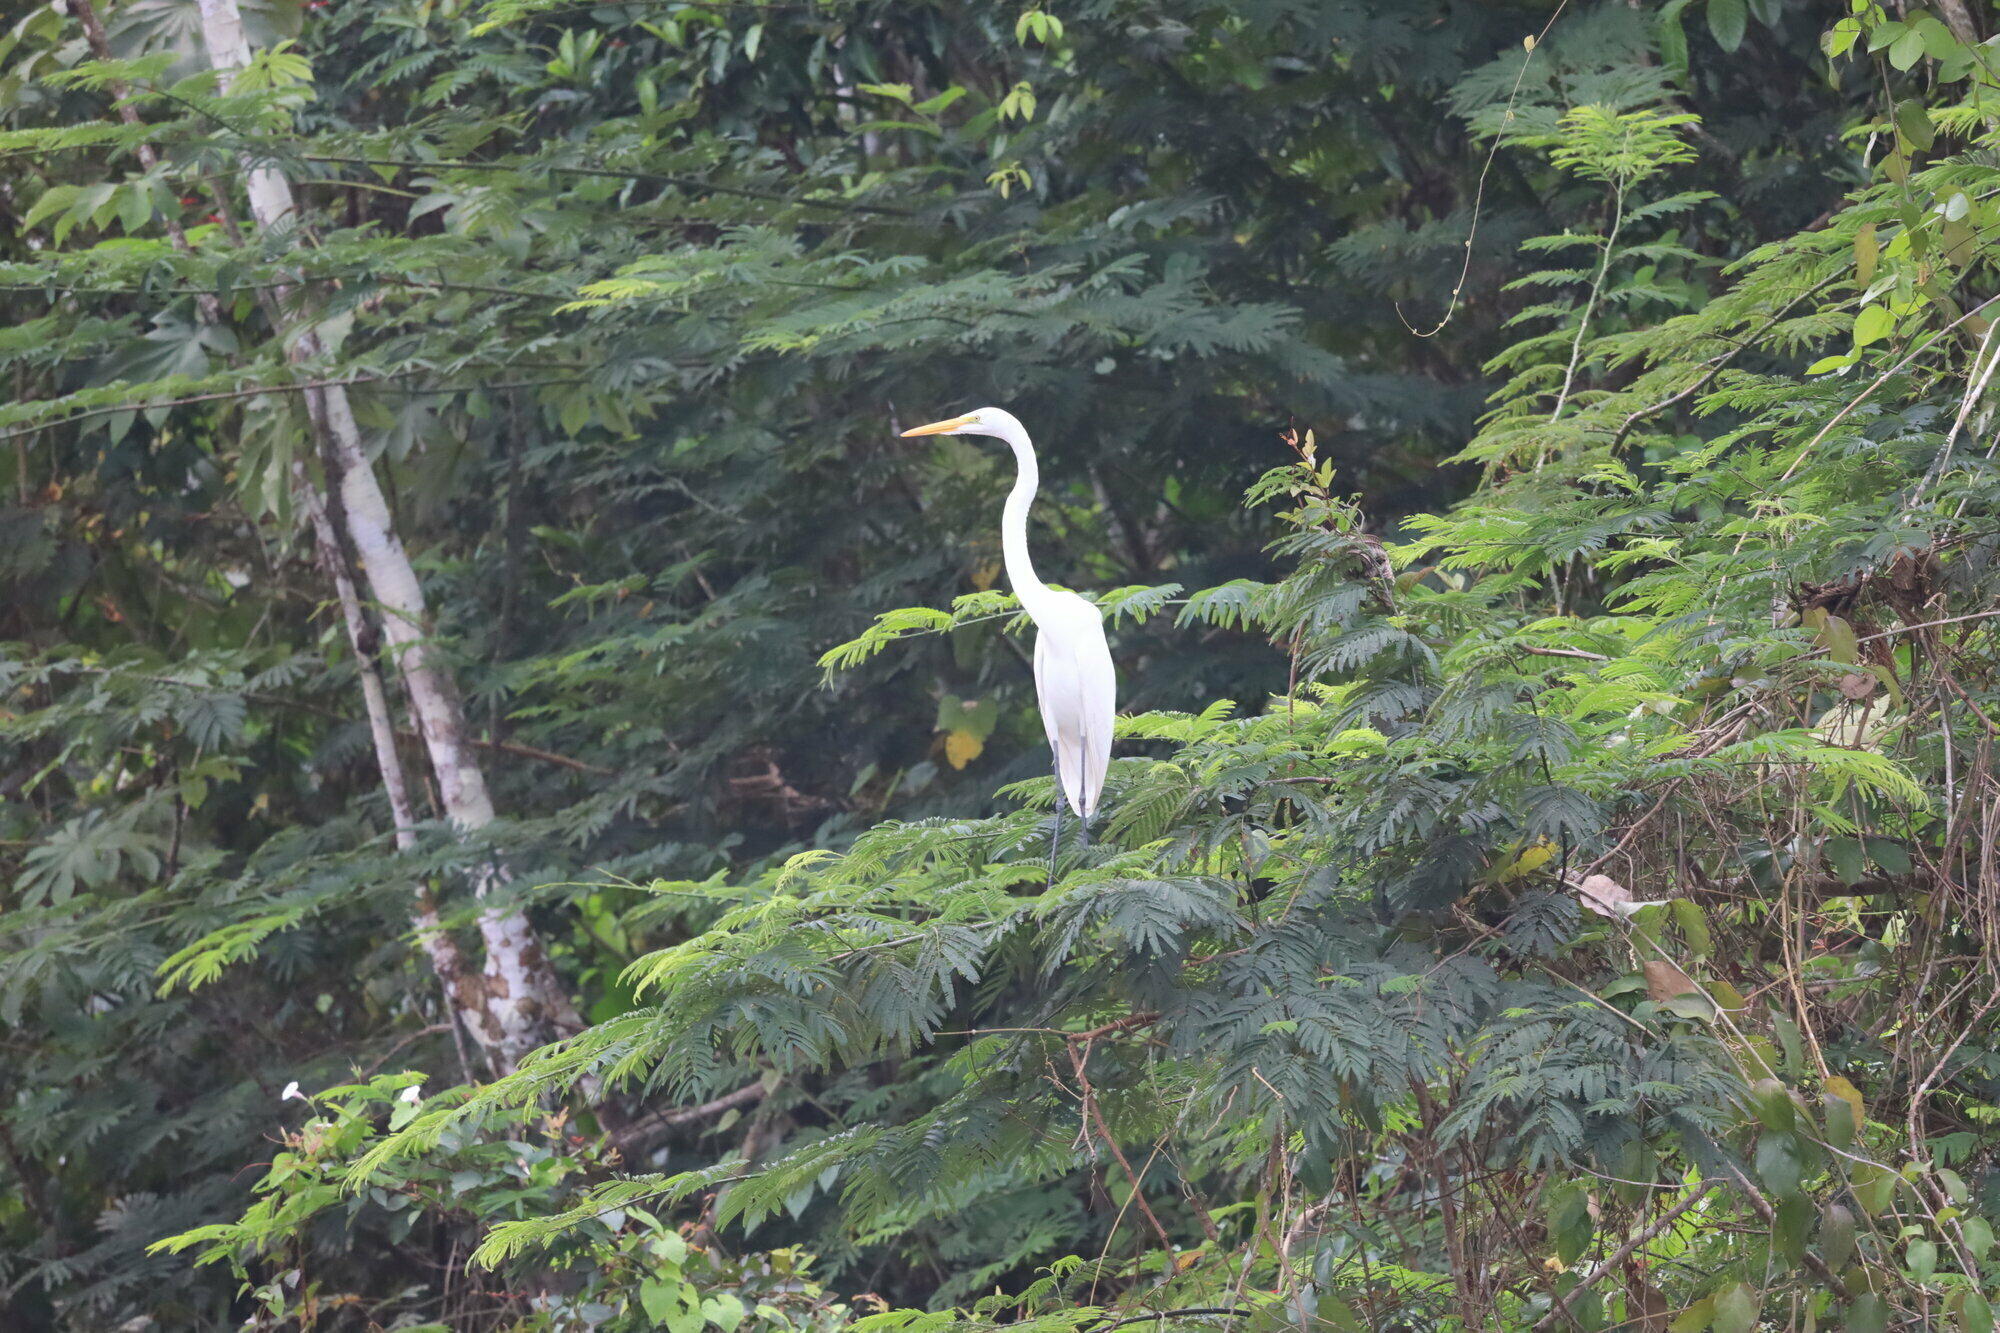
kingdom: Animalia
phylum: Chordata
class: Aves
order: Pelecaniformes
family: Ardeidae
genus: Ardea
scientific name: Ardea alba
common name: Great egret
